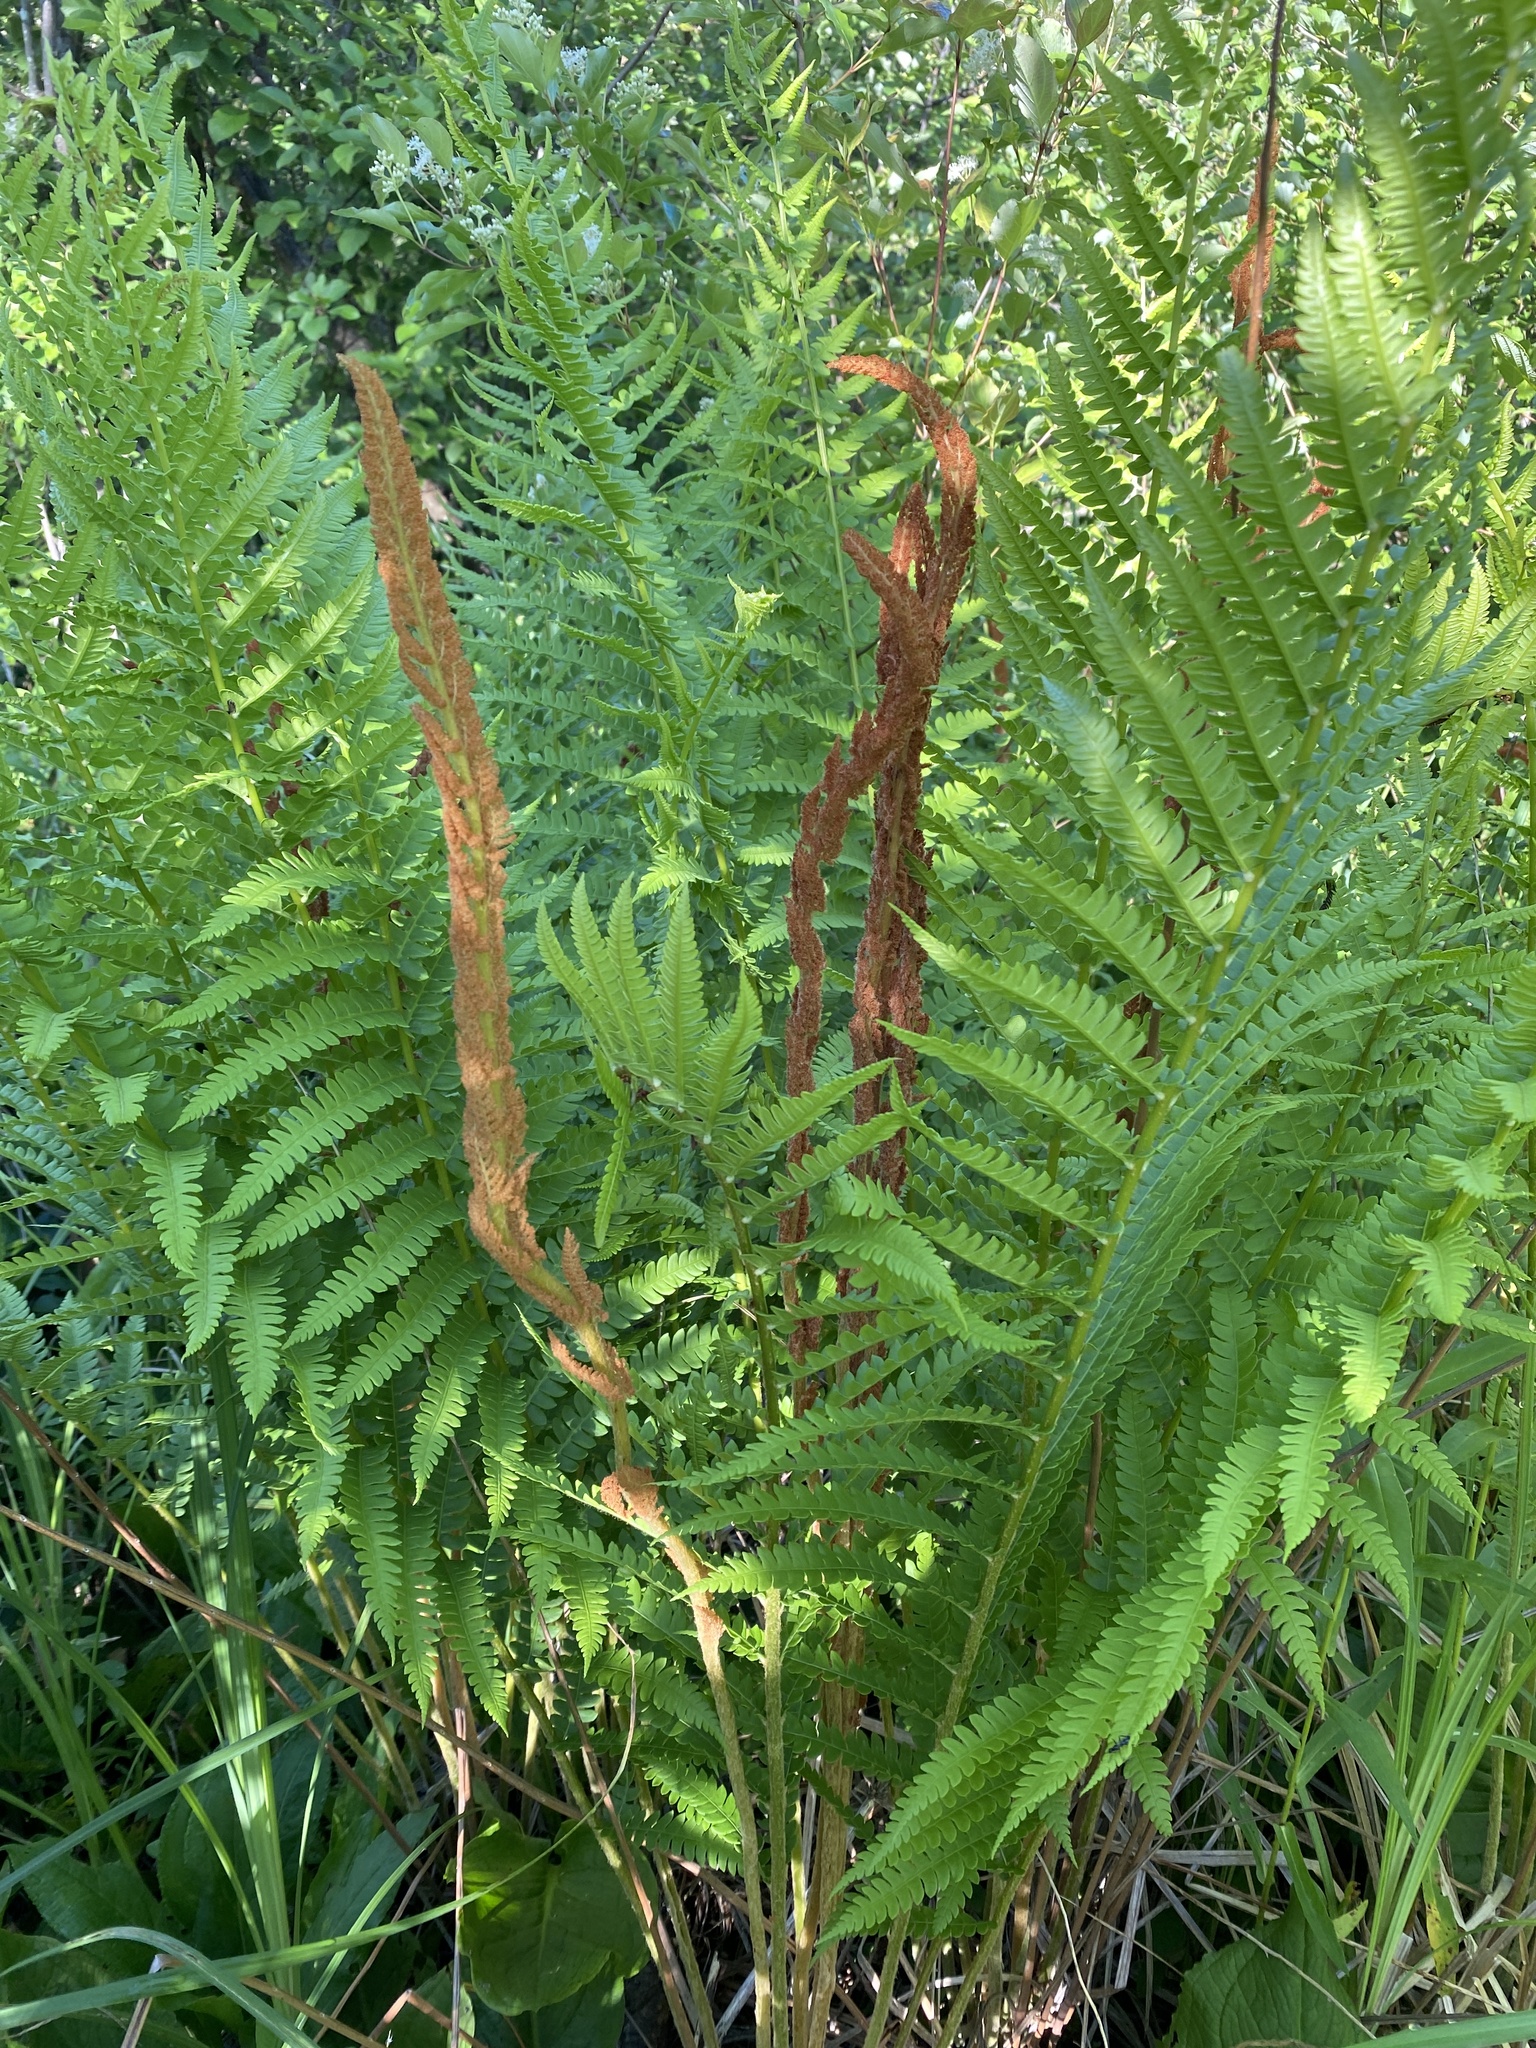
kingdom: Plantae
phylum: Tracheophyta
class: Polypodiopsida
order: Osmundales
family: Osmundaceae
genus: Osmundastrum
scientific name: Osmundastrum cinnamomeum
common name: Cinnamon fern
